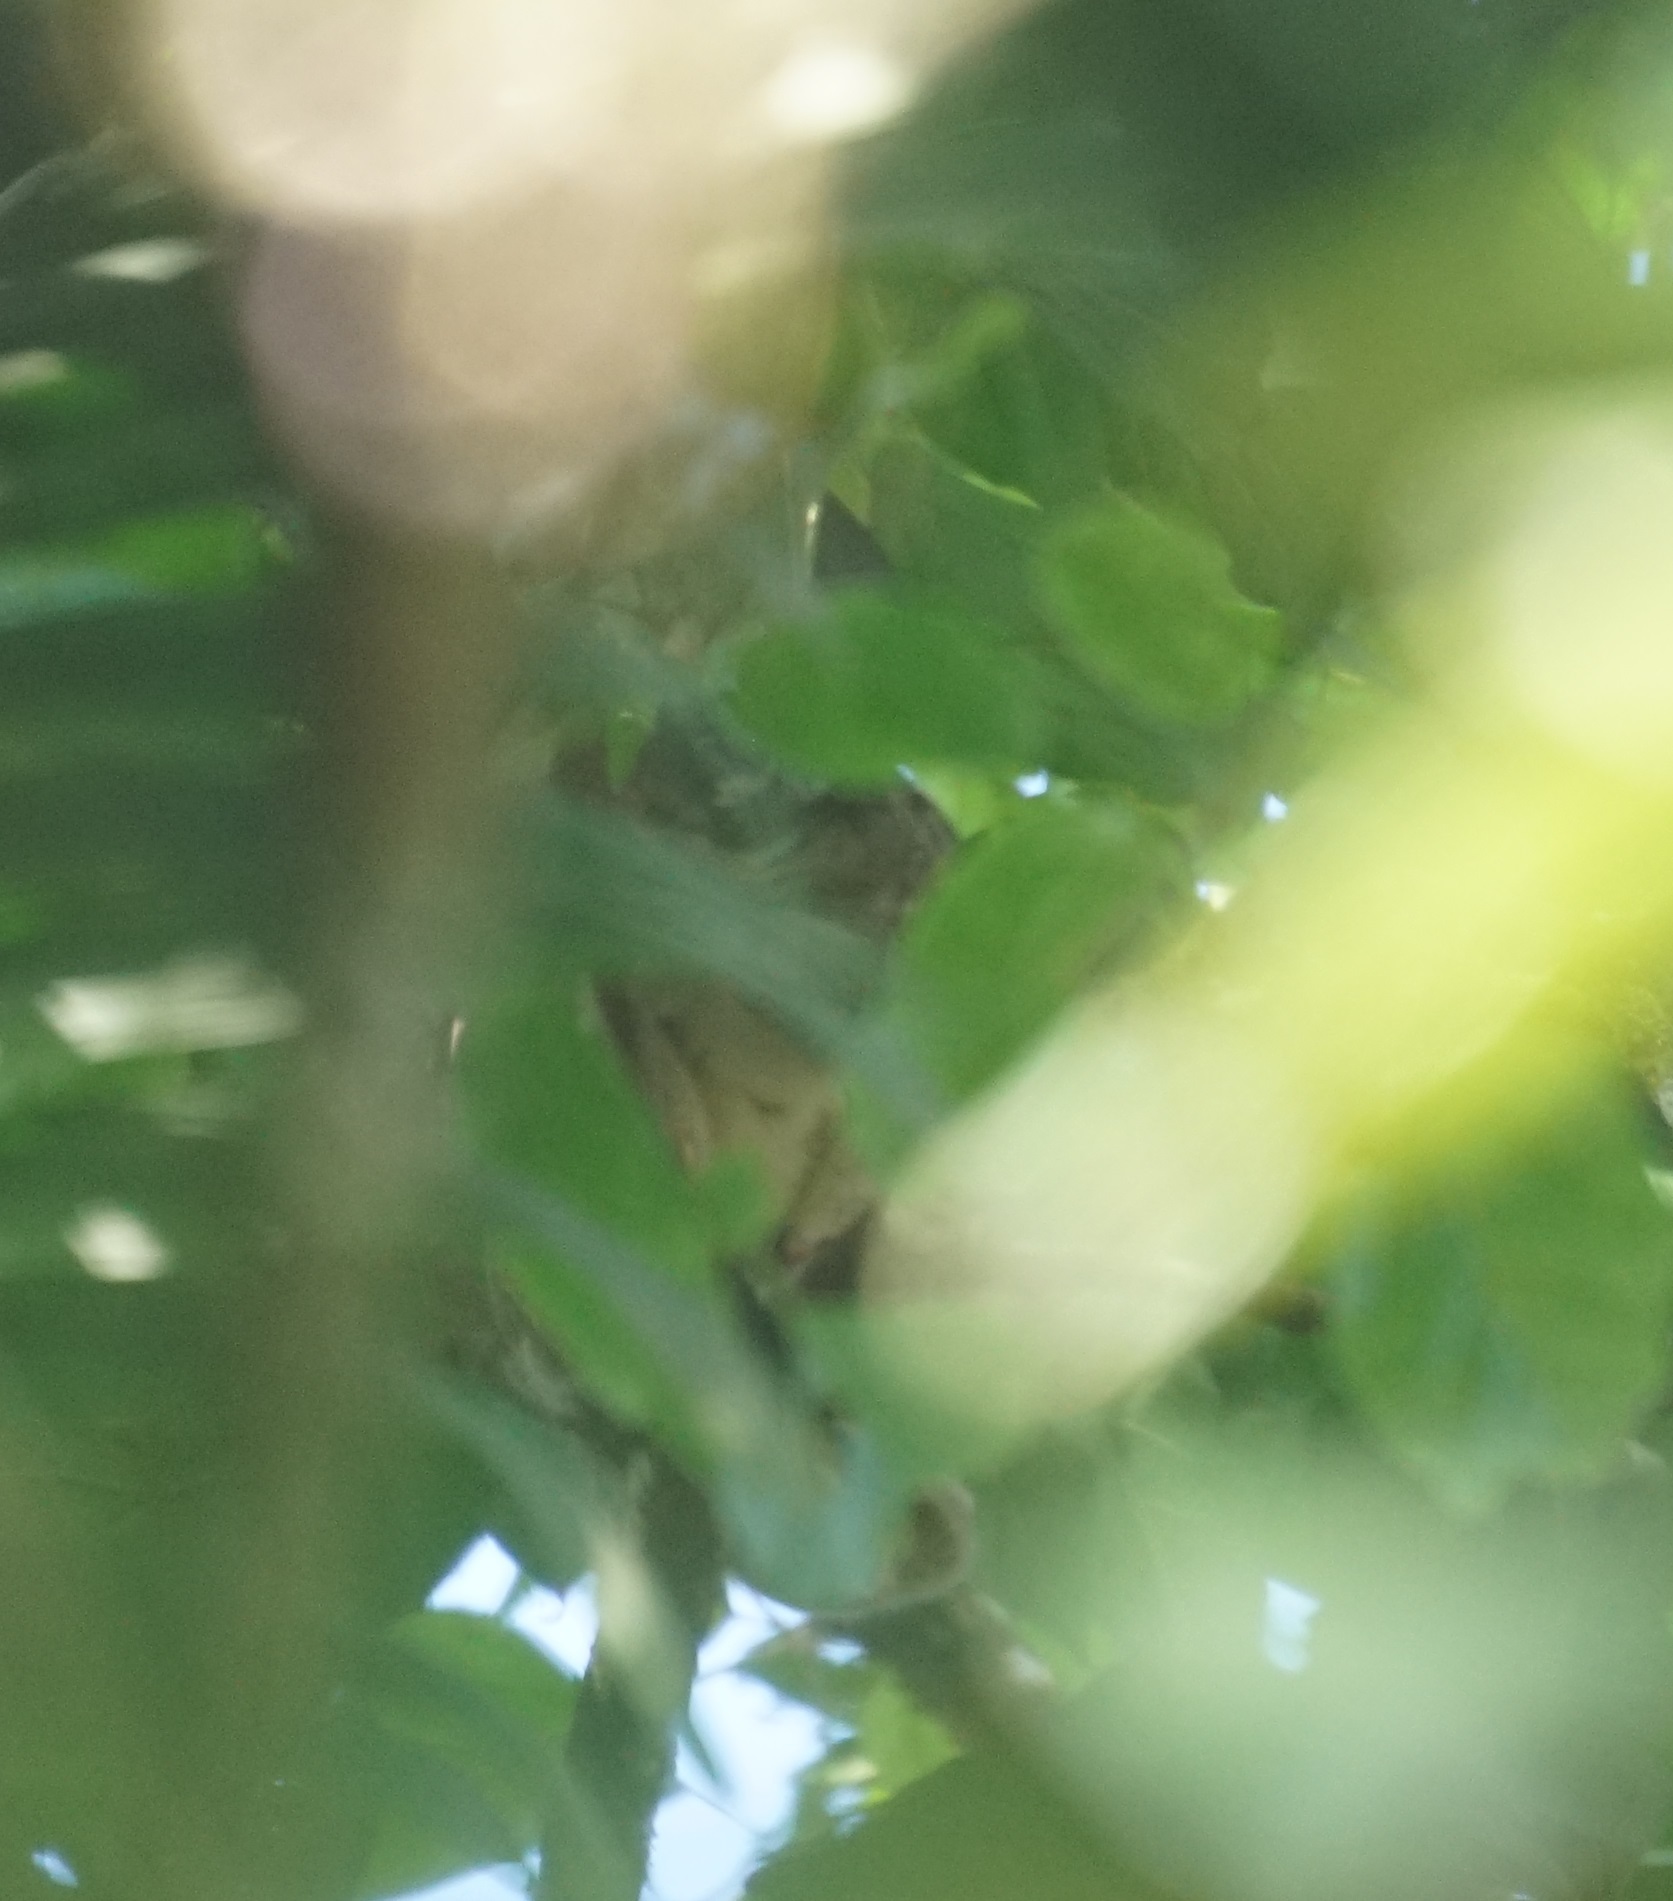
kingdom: Animalia
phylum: Chordata
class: Mammalia
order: Diprotodontia
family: Pseudocheiridae
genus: Pseudochirops
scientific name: Pseudochirops archeri
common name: Green ringtail
